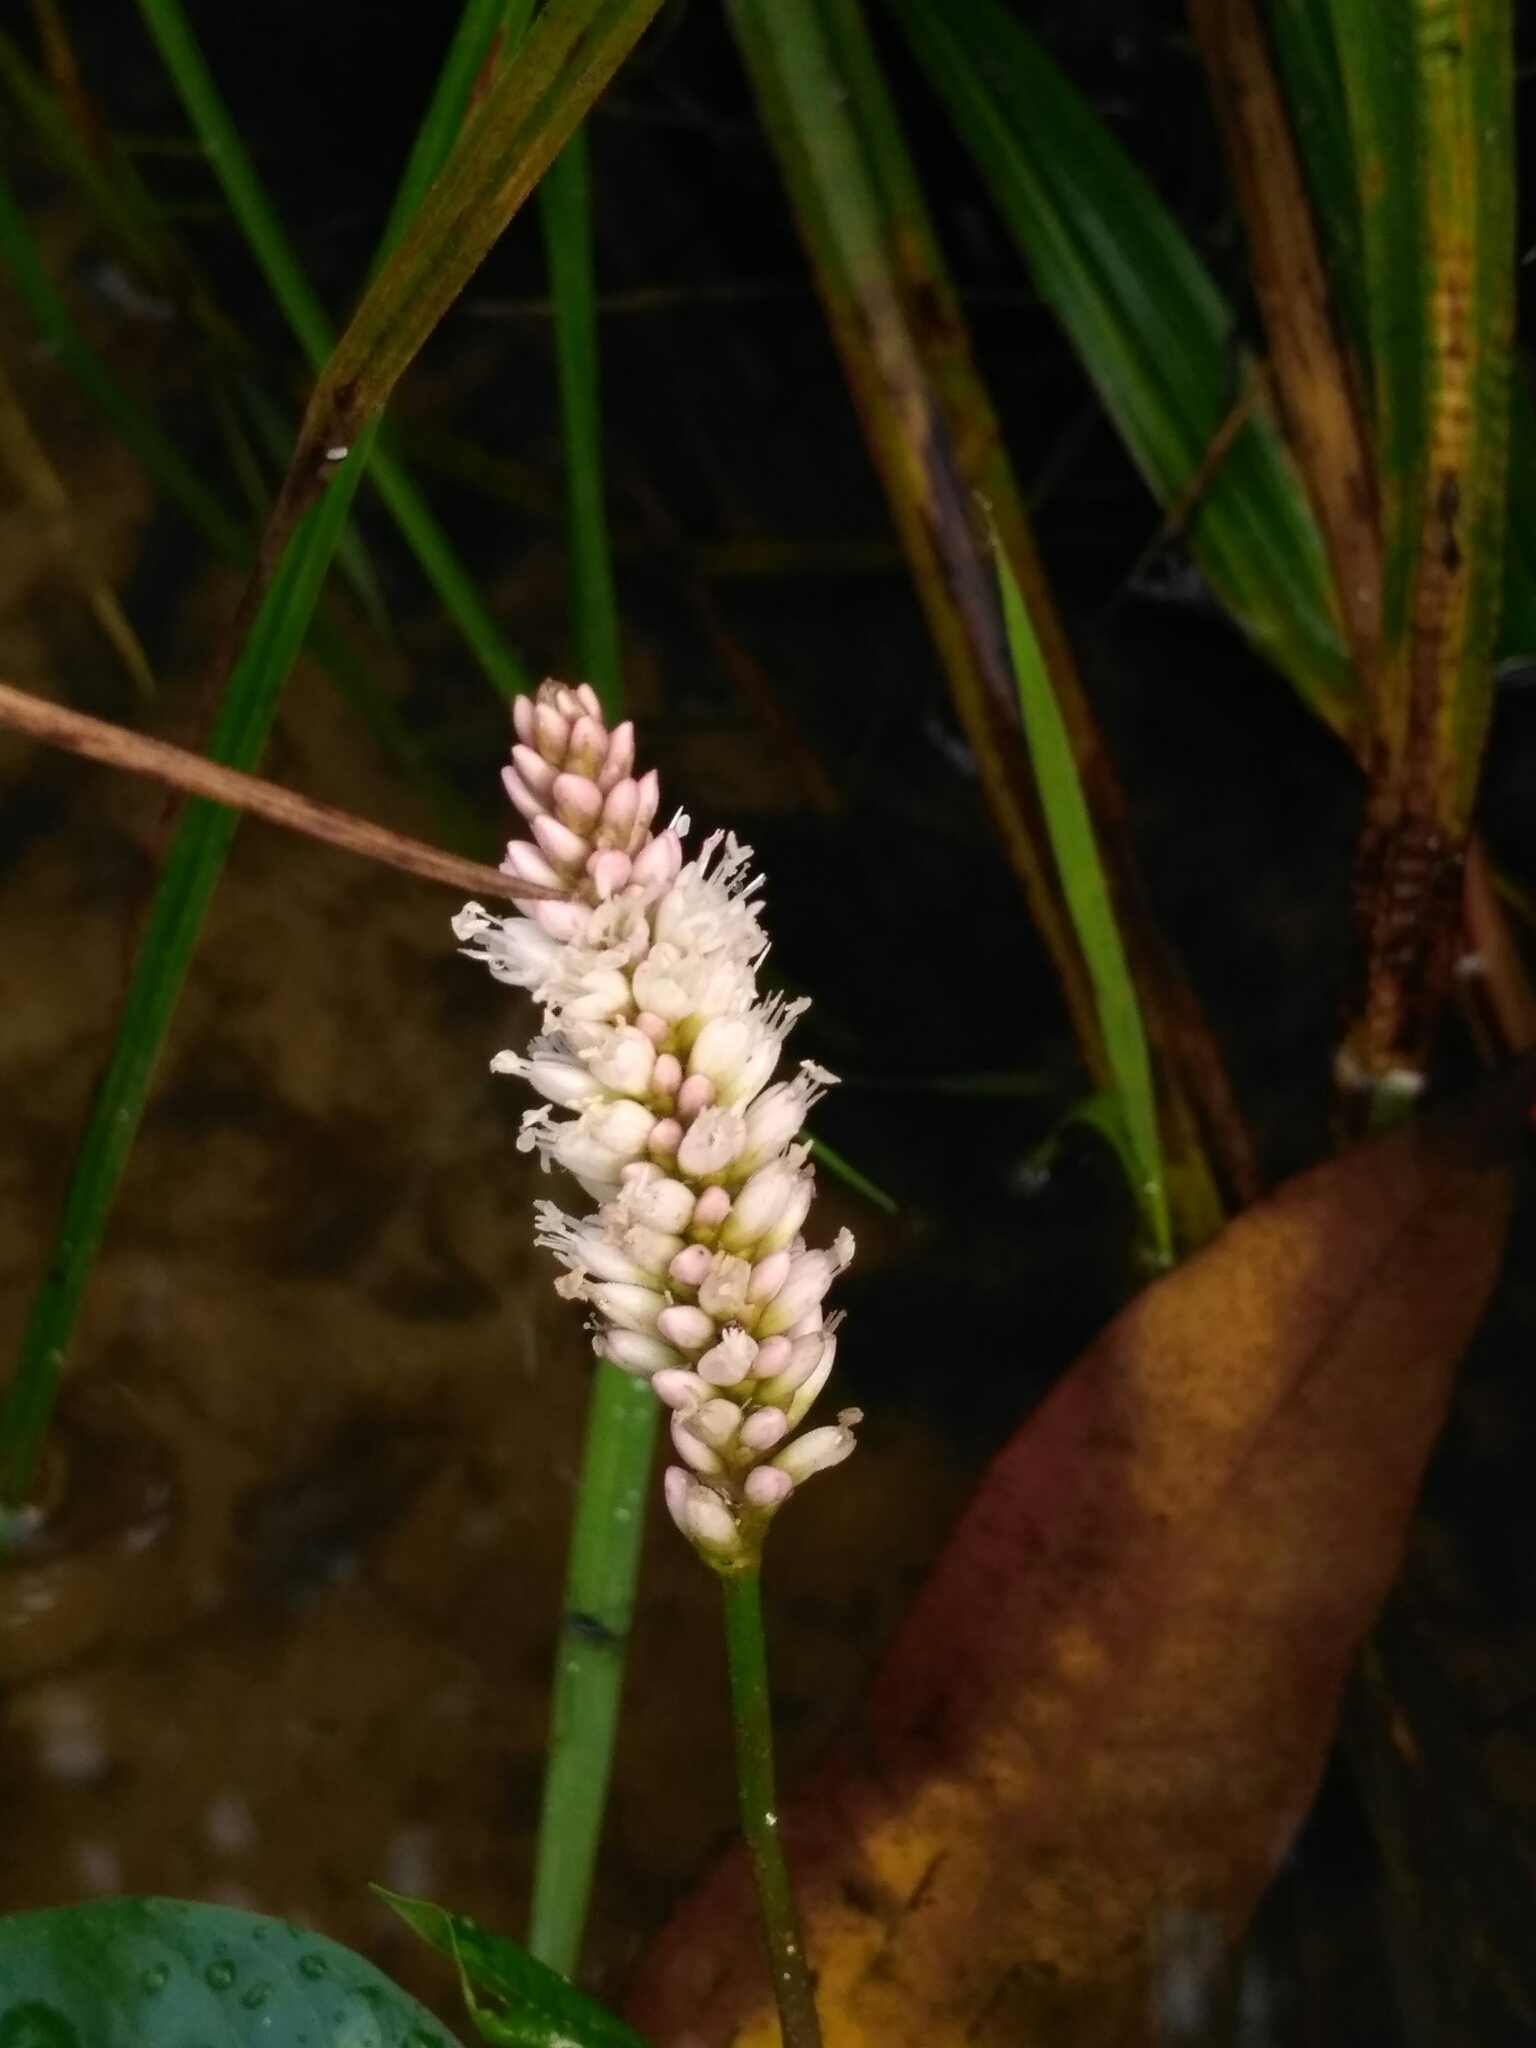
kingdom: Plantae
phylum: Tracheophyta
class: Magnoliopsida
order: Caryophyllales
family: Polygonaceae
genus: Persicaria
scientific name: Persicaria amphibia
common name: Amphibious bistort
